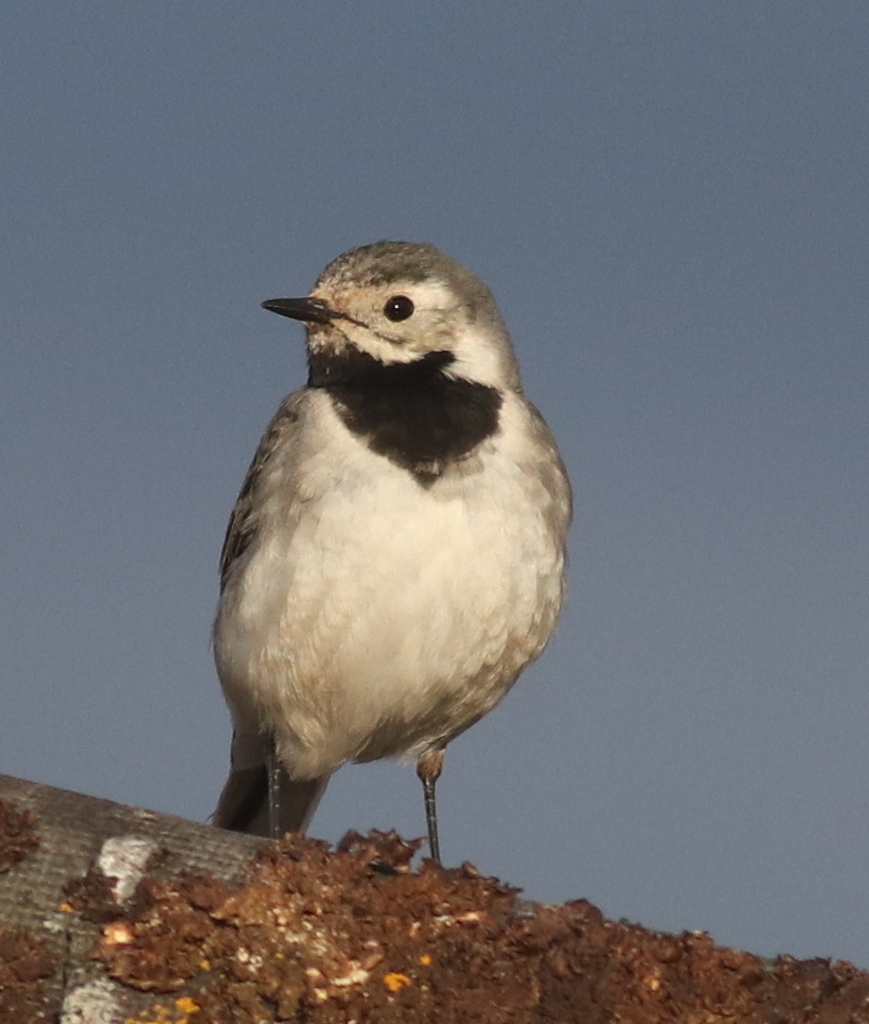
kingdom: Animalia
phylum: Chordata
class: Aves
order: Passeriformes
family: Motacillidae
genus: Motacilla
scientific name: Motacilla alba
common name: White wagtail
